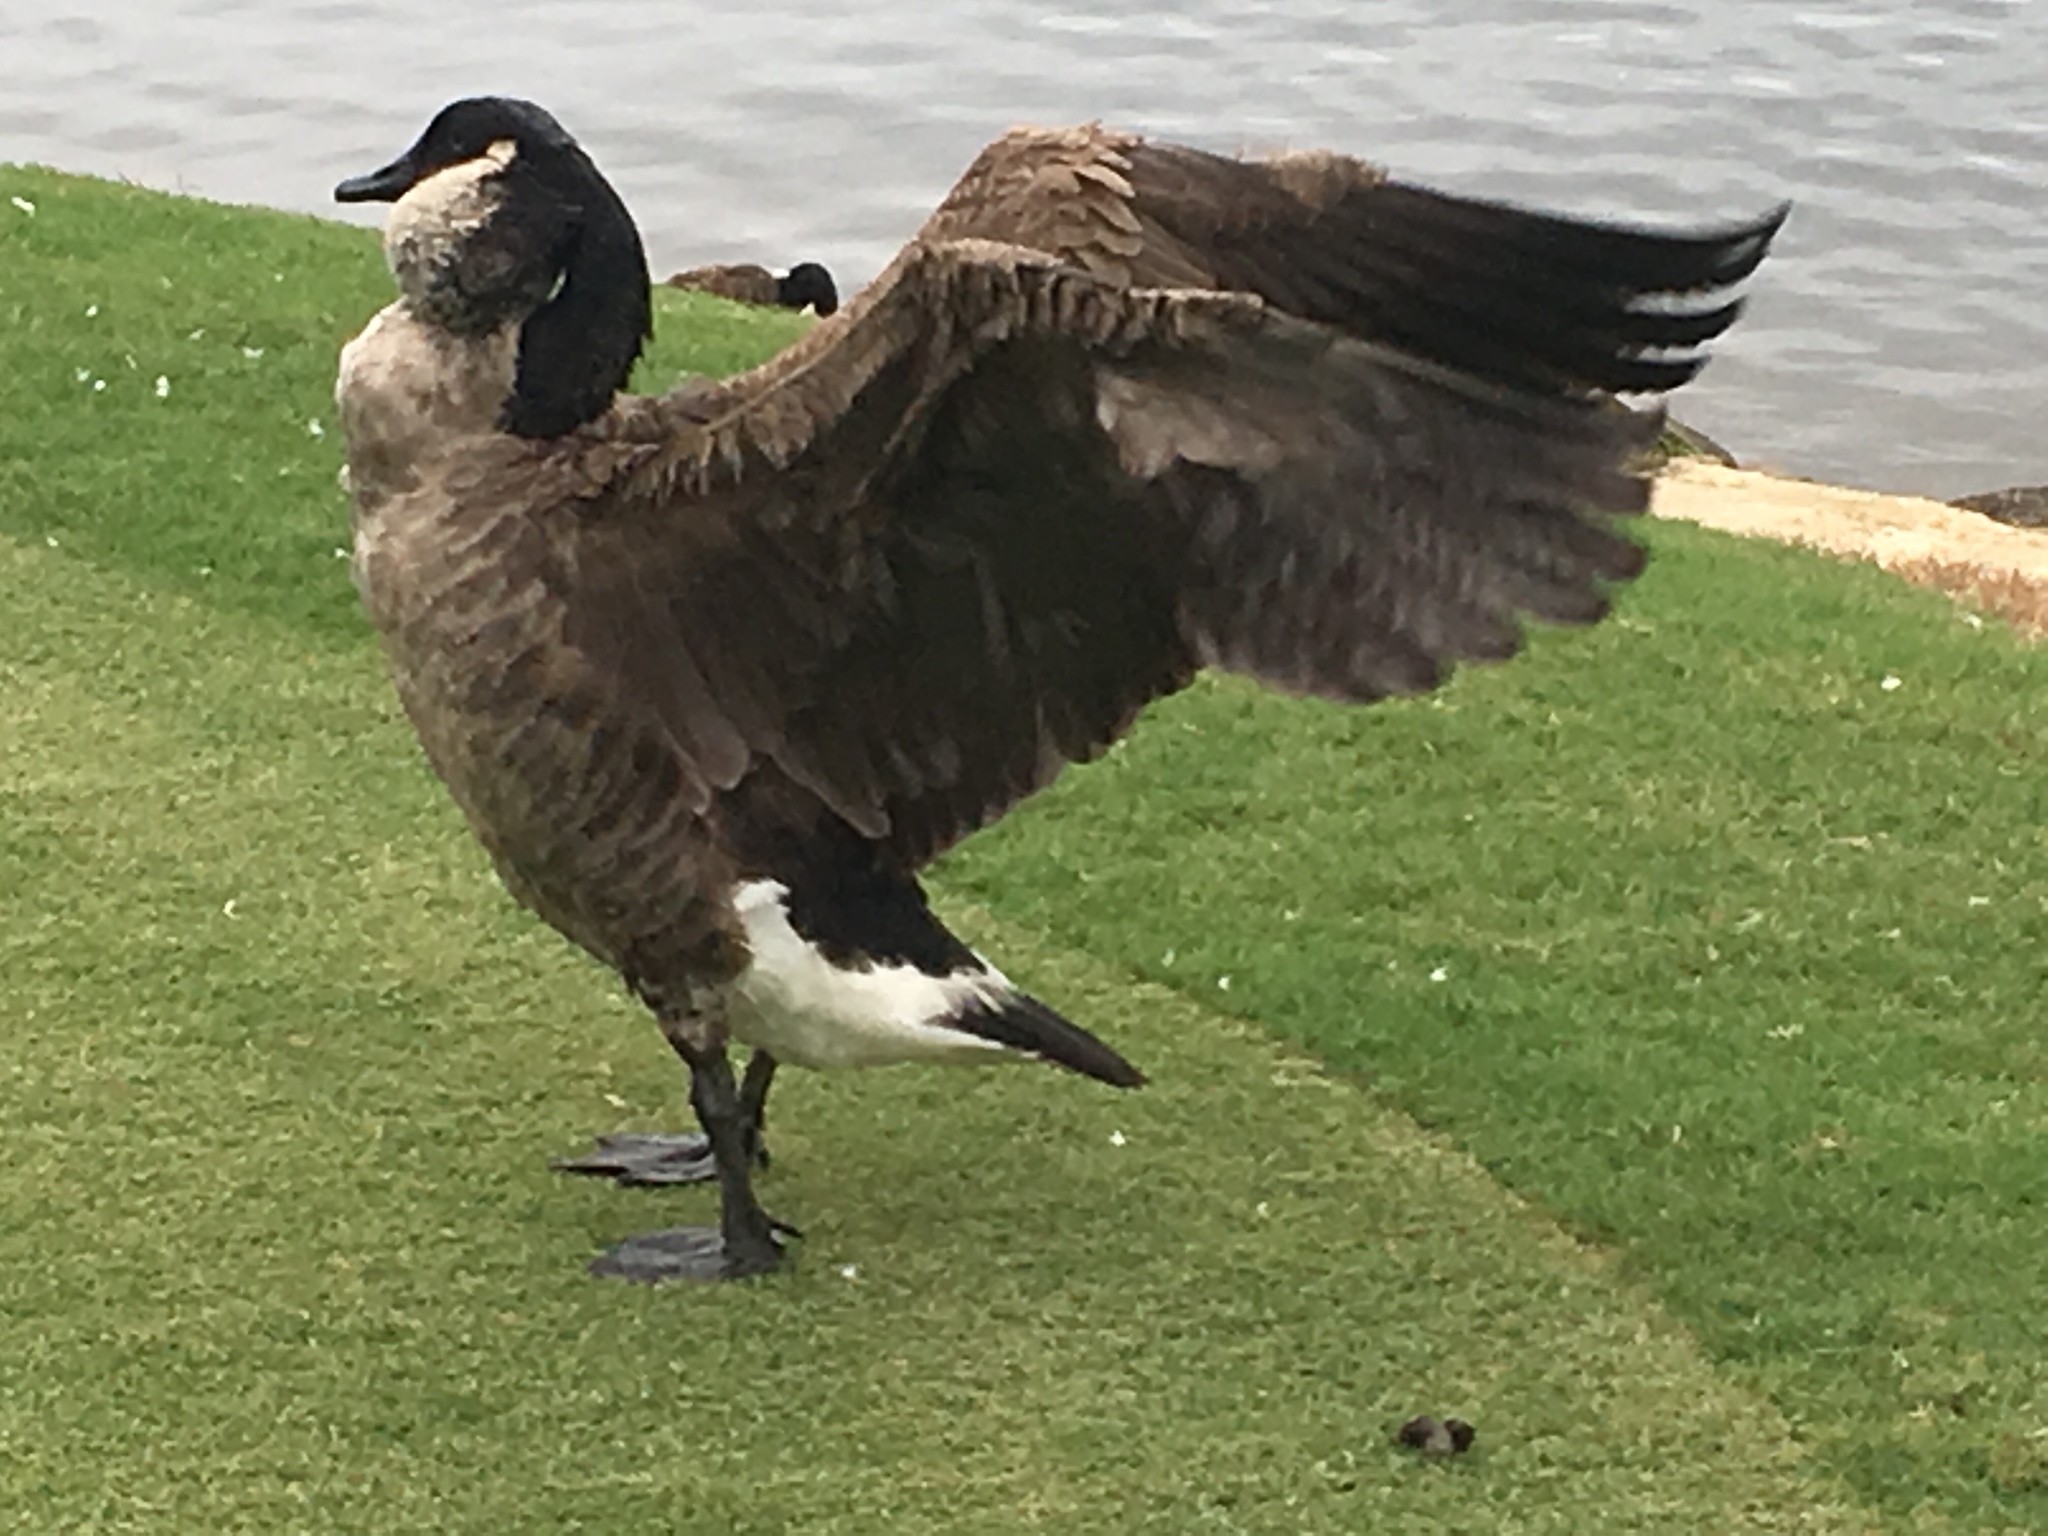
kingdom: Animalia
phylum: Chordata
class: Aves
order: Anseriformes
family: Anatidae
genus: Branta
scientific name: Branta canadensis
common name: Canada goose
